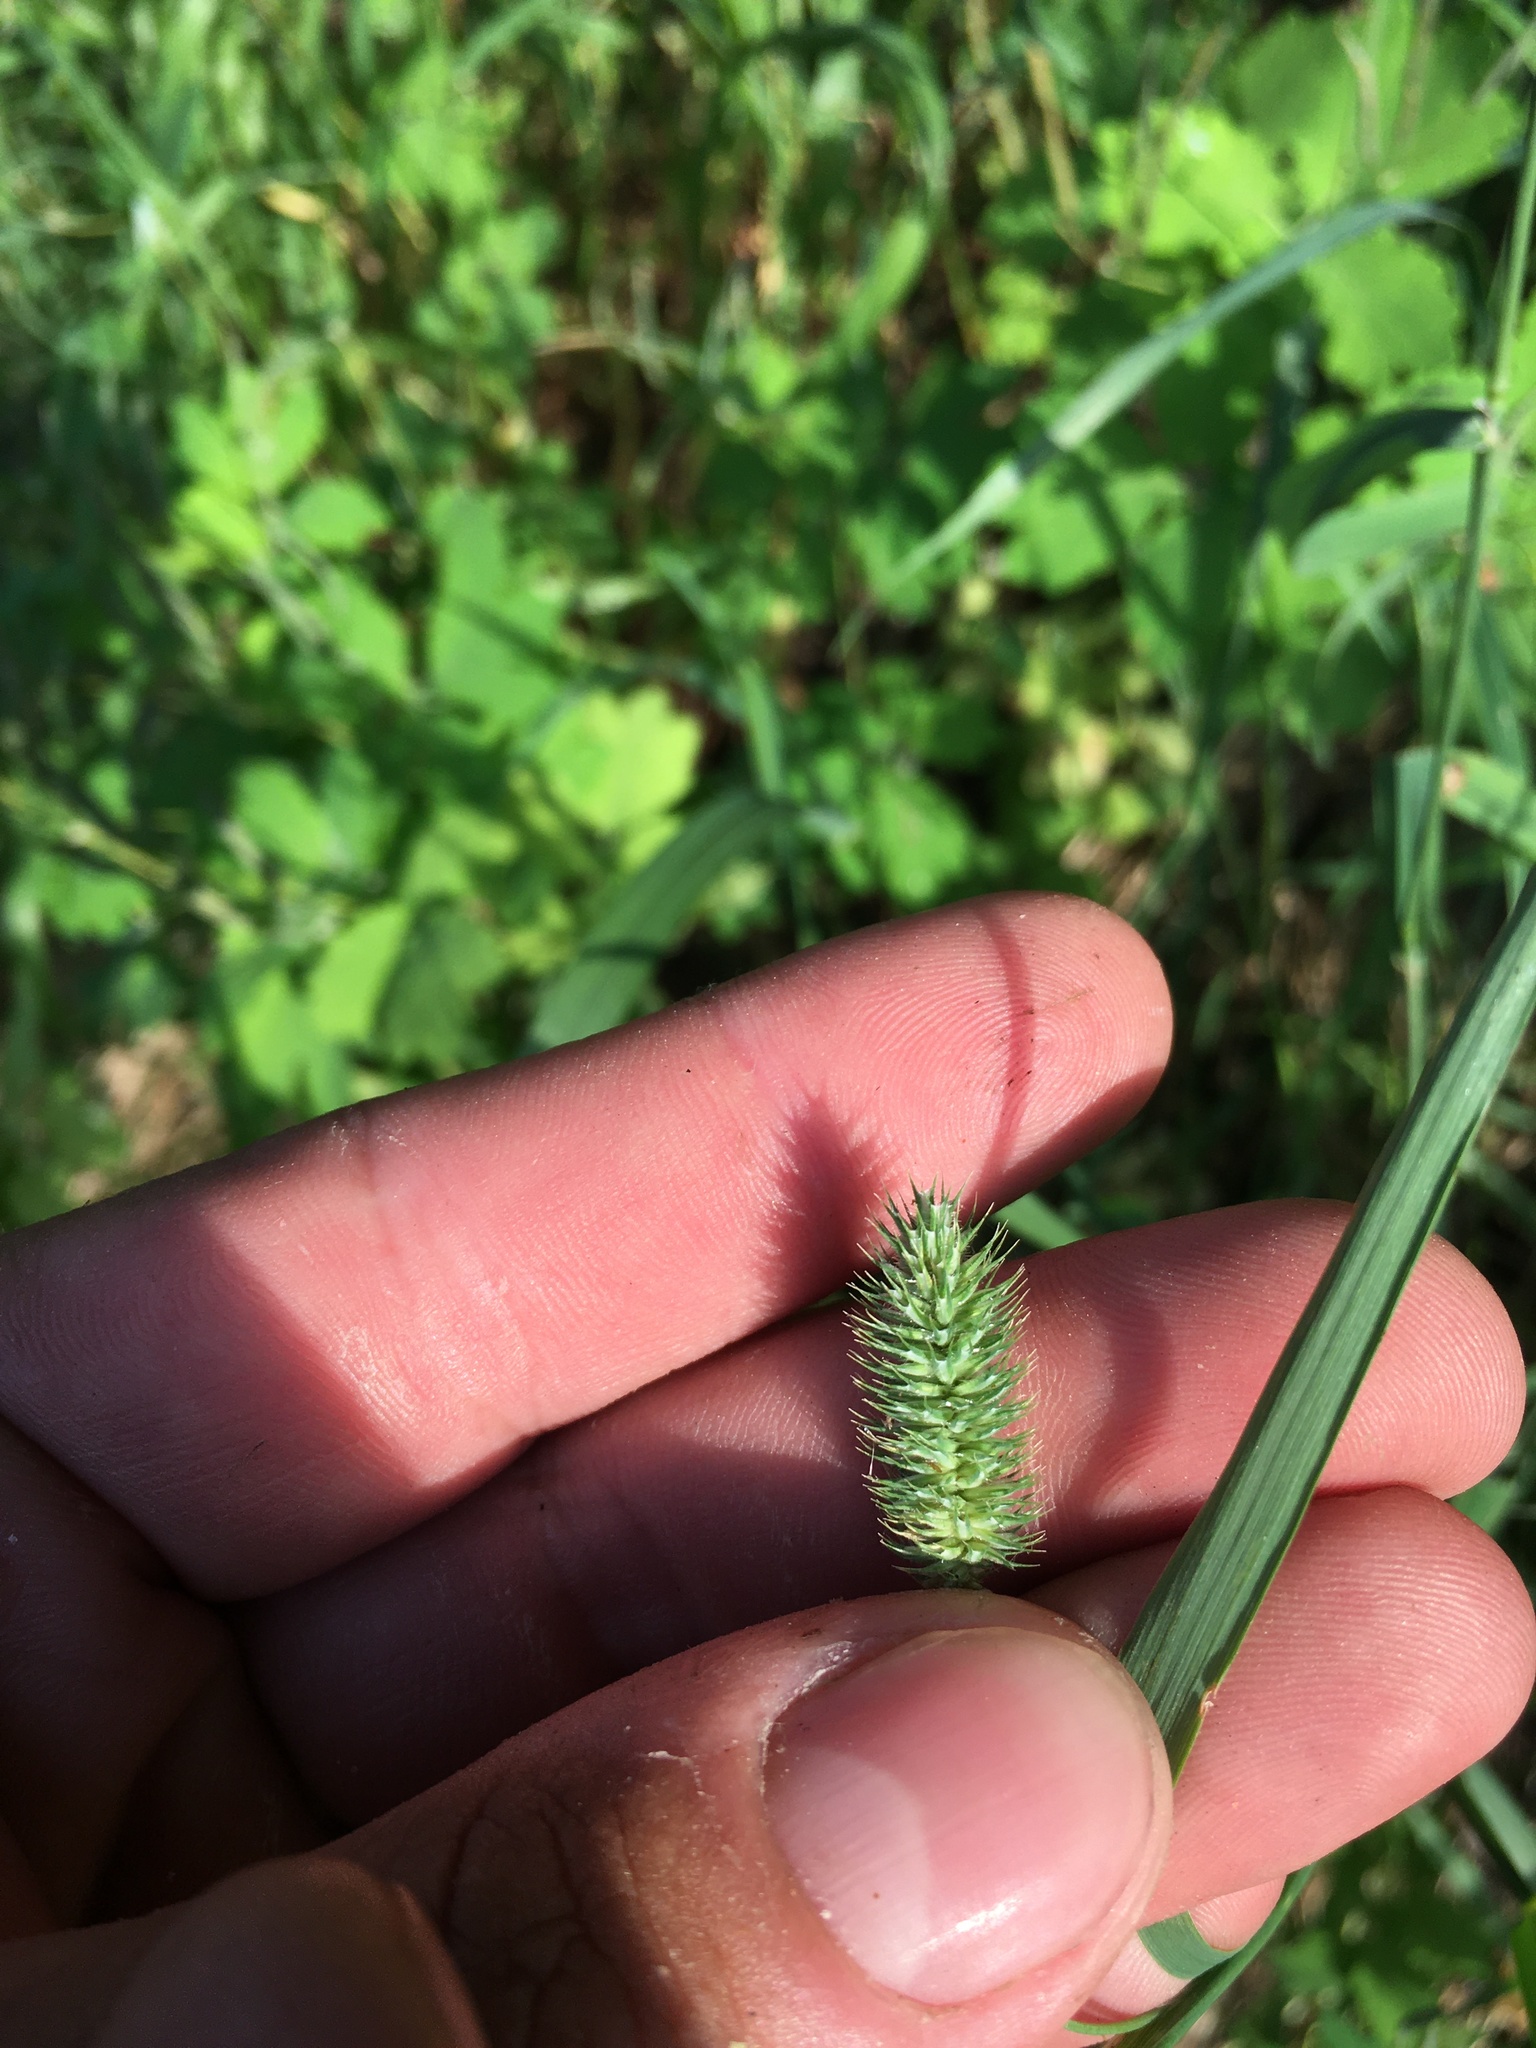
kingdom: Plantae
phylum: Tracheophyta
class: Liliopsida
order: Poales
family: Poaceae
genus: Phleum
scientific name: Phleum pratense
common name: Timothy grass
